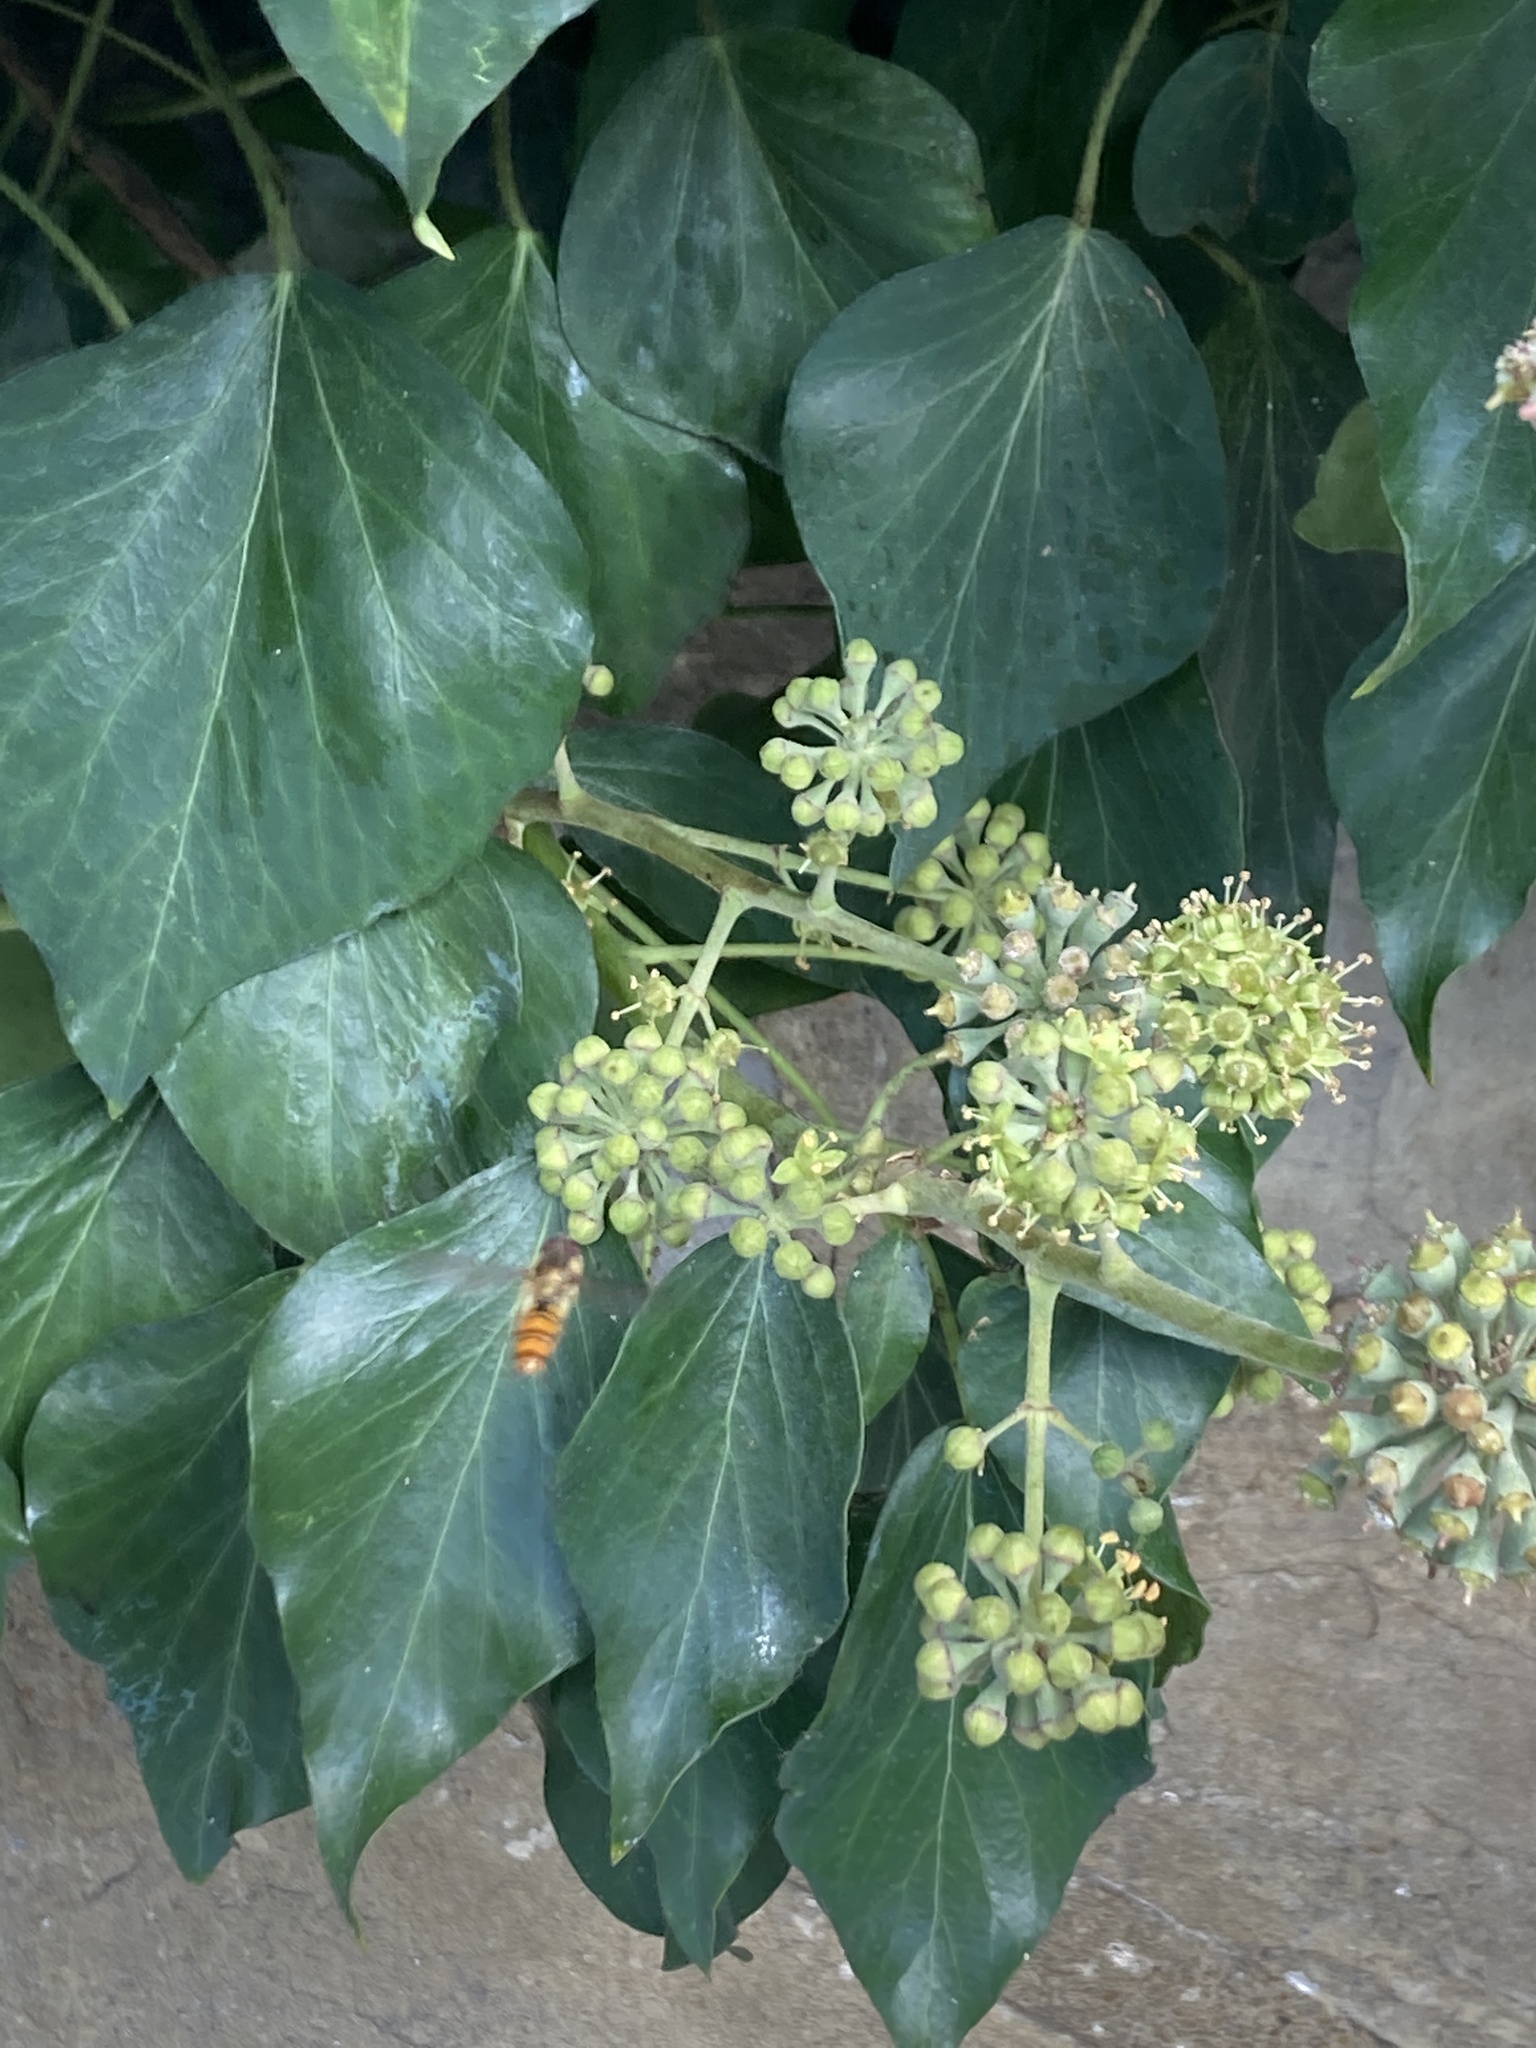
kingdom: Animalia
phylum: Arthropoda
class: Insecta
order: Diptera
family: Syrphidae
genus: Episyrphus
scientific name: Episyrphus balteatus
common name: Marmalade hoverfly
